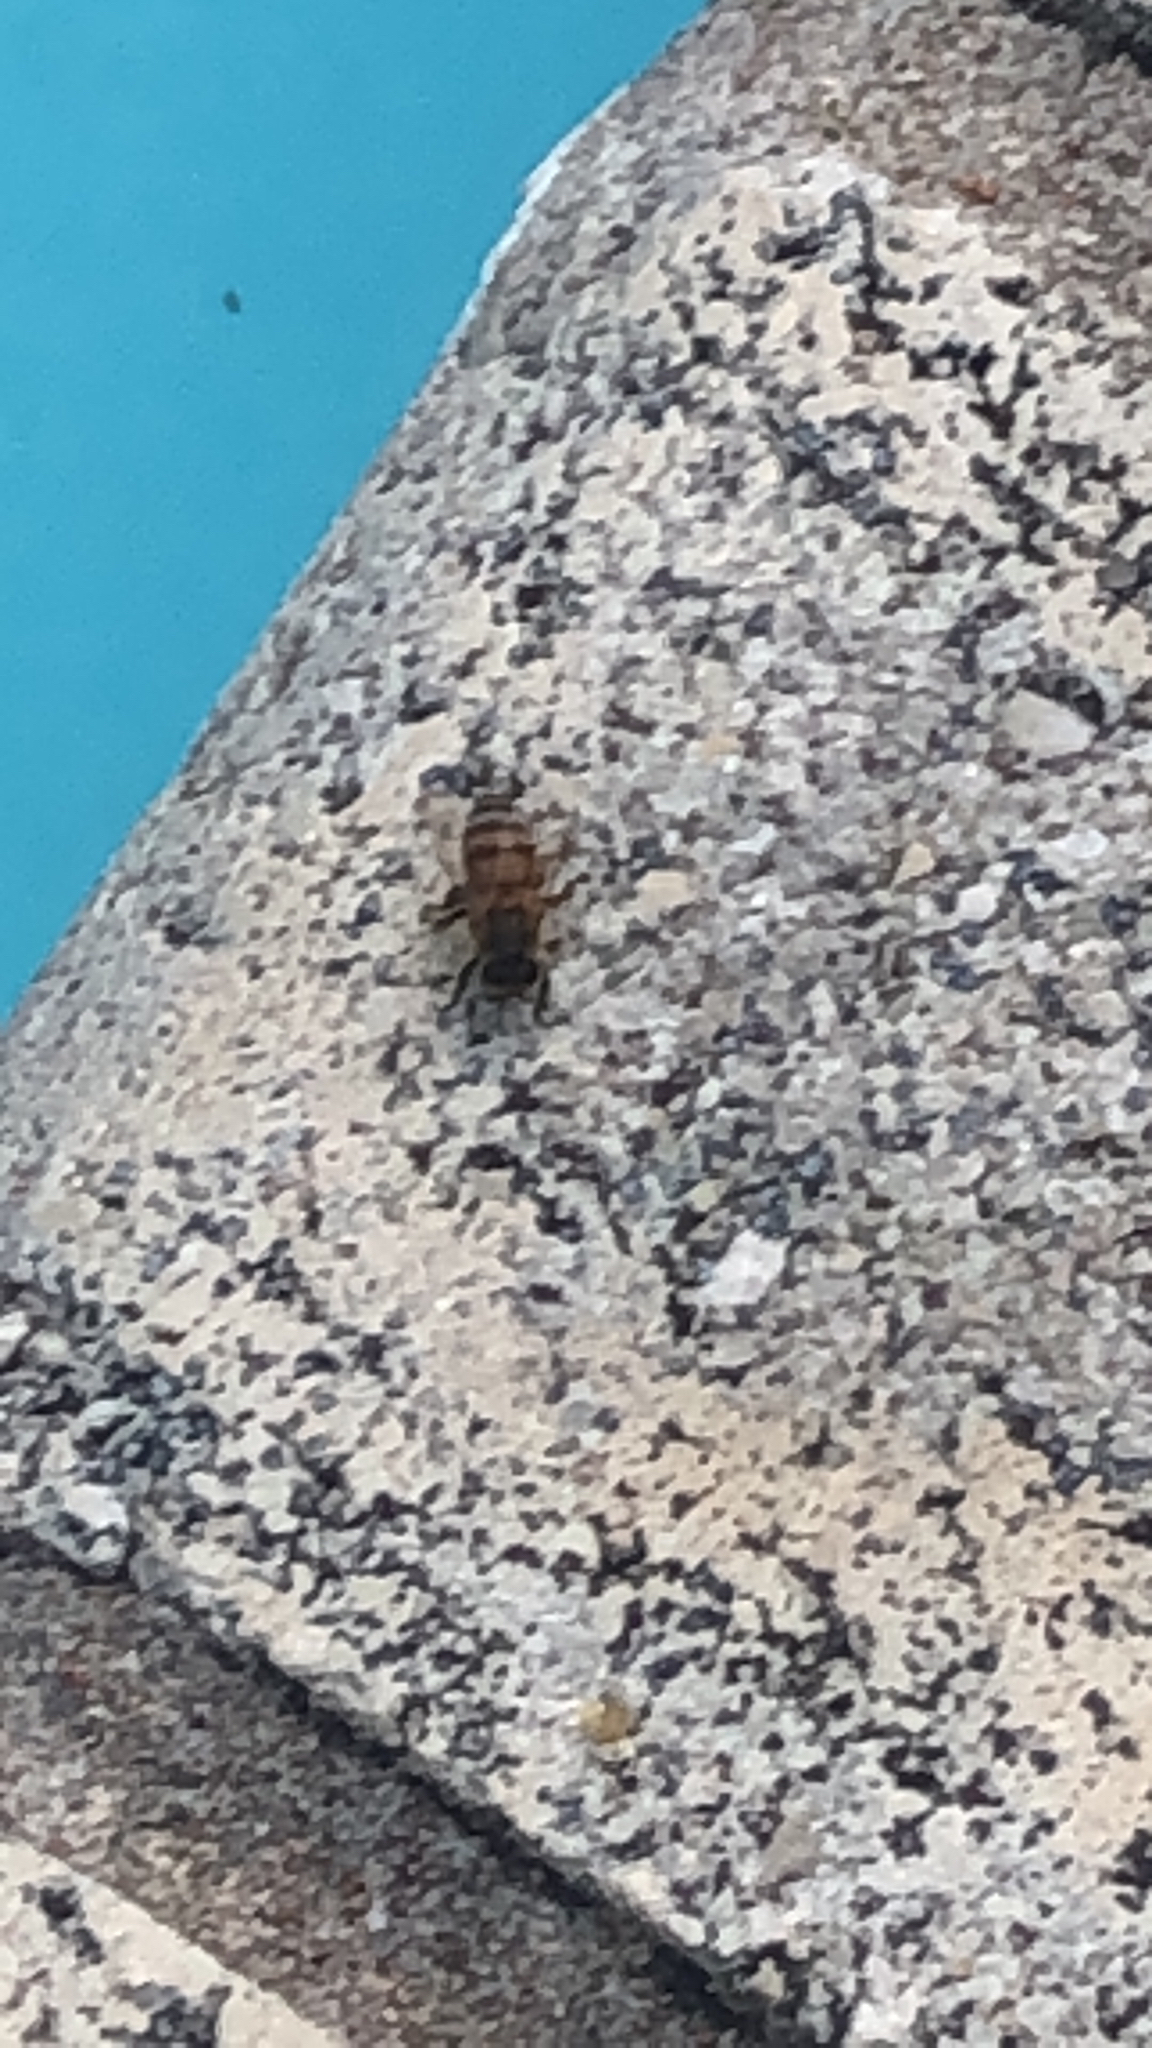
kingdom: Animalia
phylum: Arthropoda
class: Insecta
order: Hymenoptera
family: Apidae
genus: Apis
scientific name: Apis mellifera
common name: Honey bee
